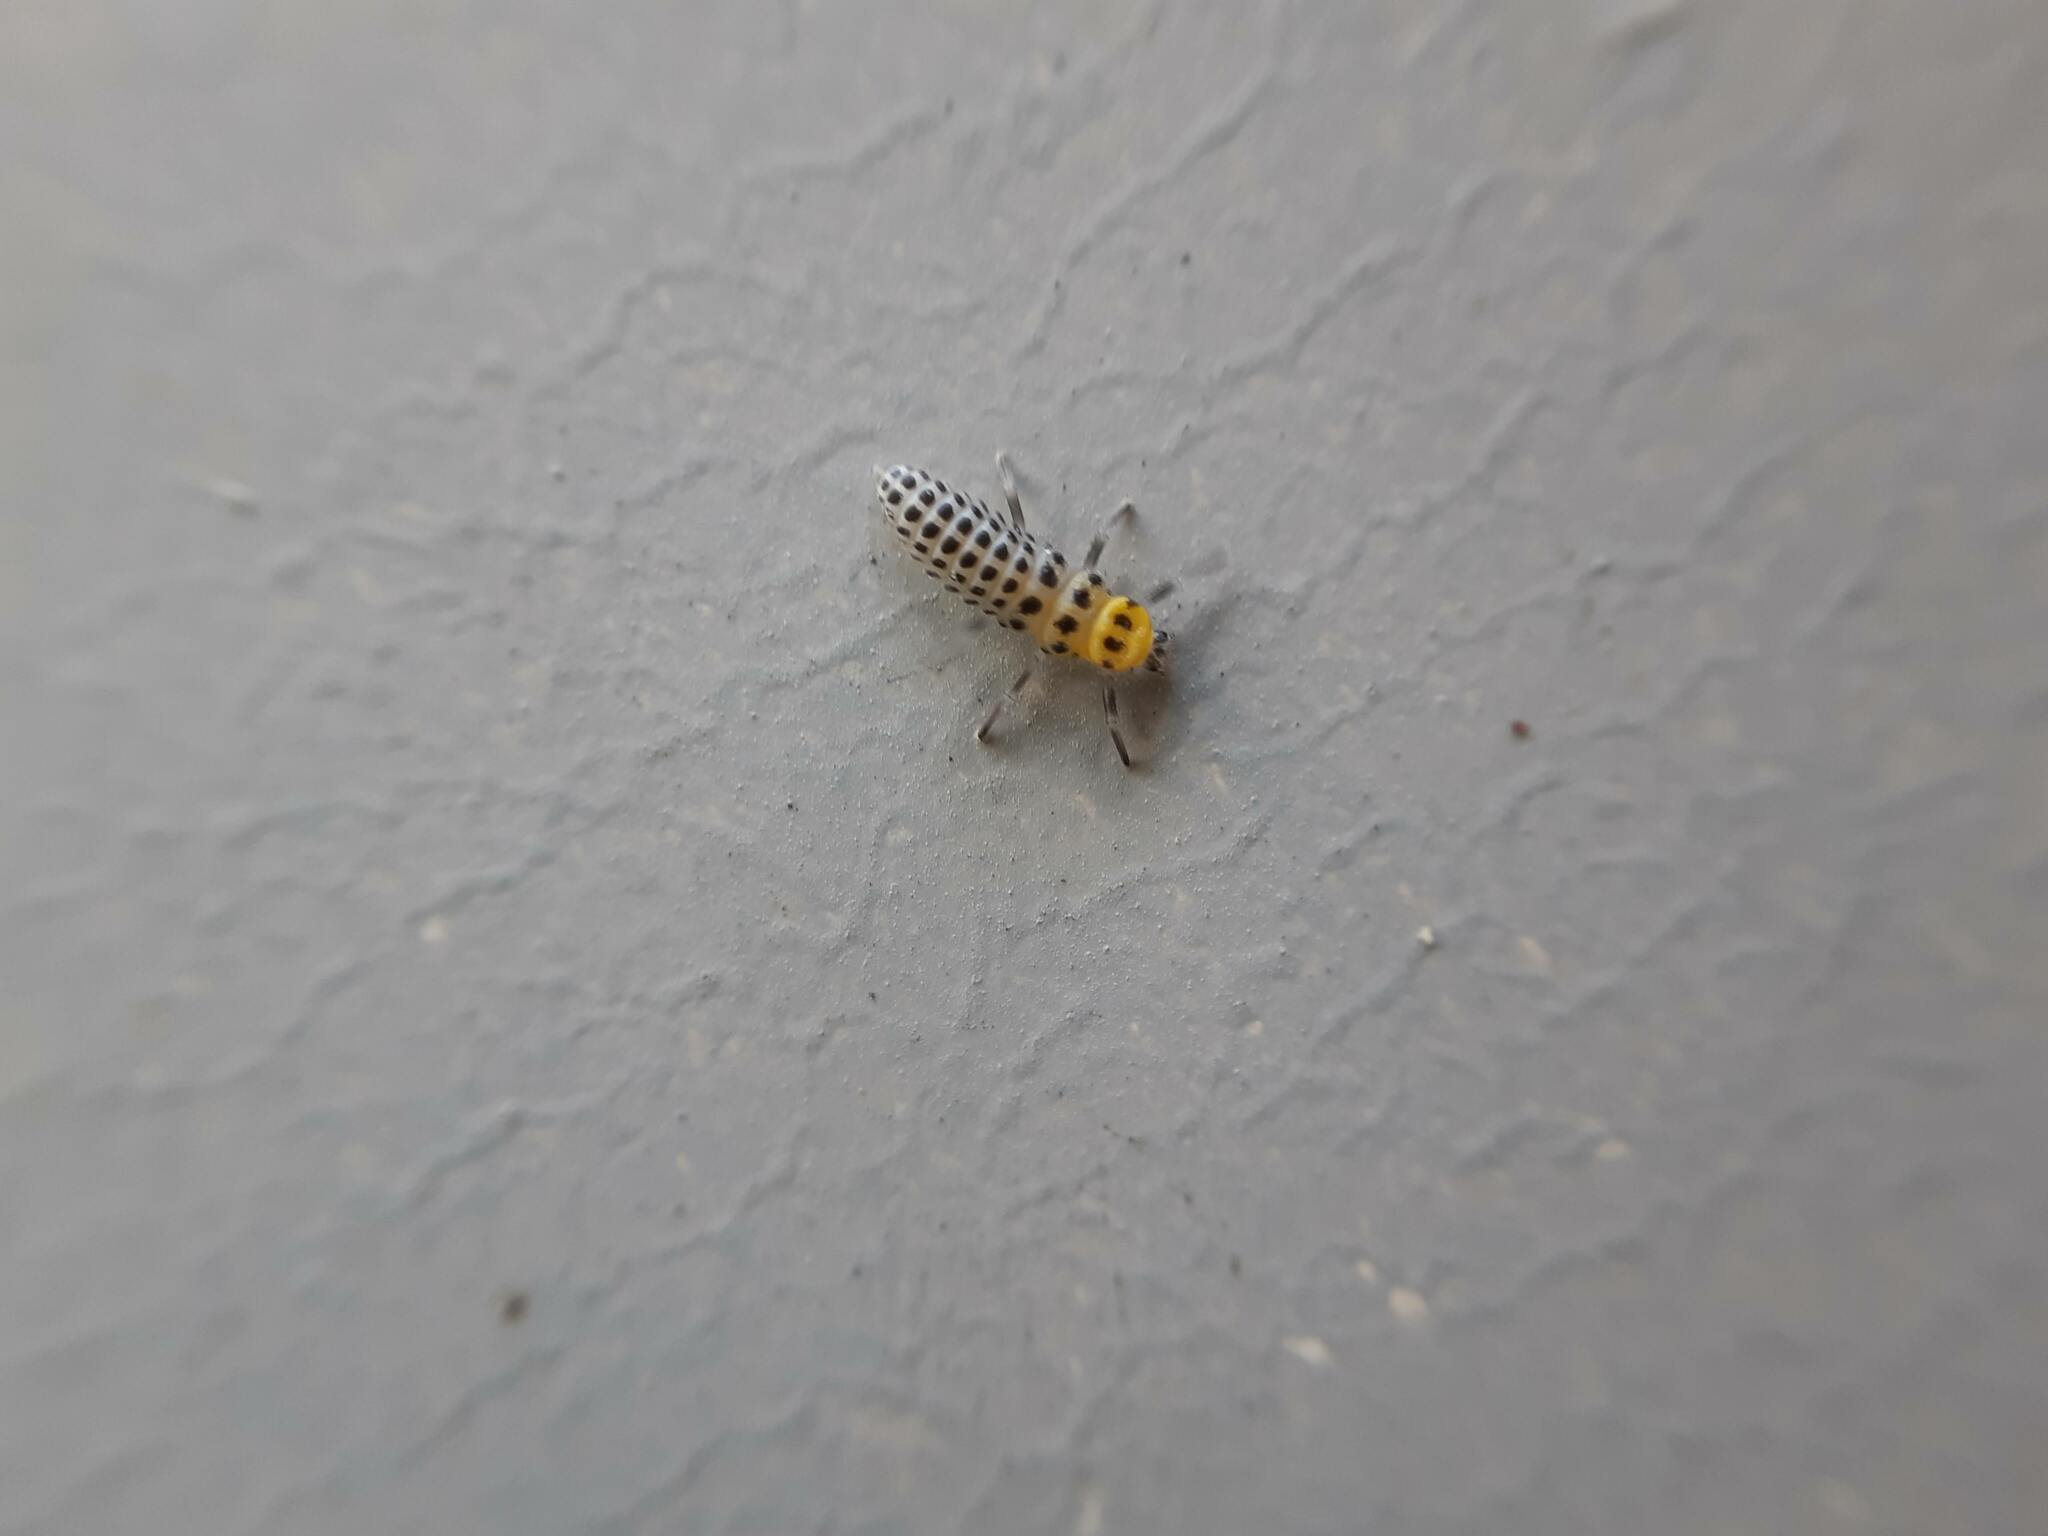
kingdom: Animalia
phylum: Arthropoda
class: Insecta
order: Coleoptera
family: Coccinellidae
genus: Illeis
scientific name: Illeis galbula
